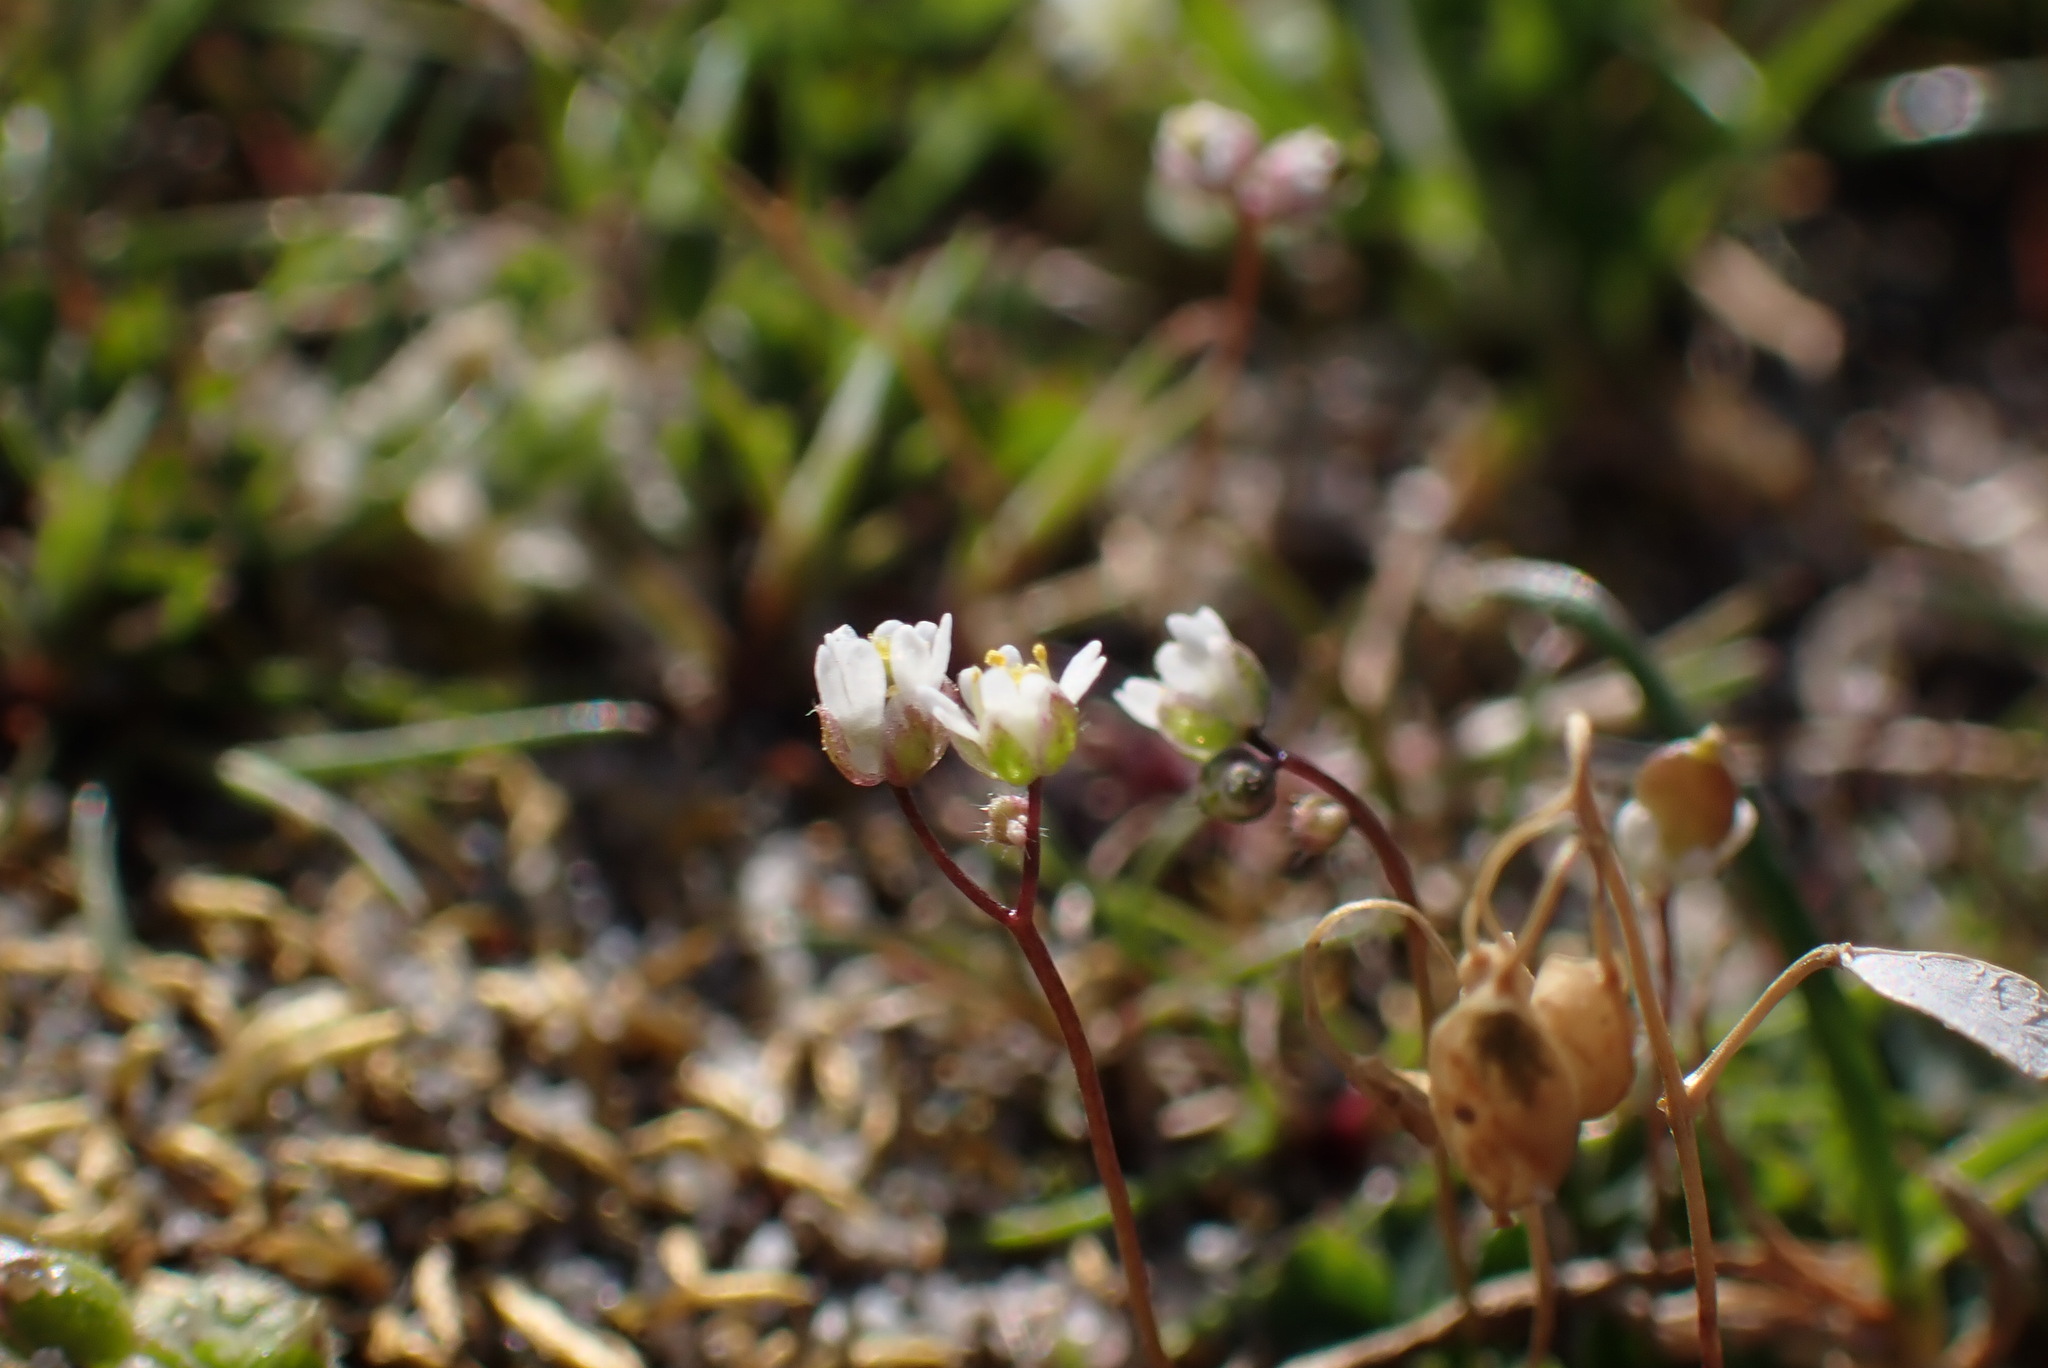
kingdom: Plantae
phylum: Tracheophyta
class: Magnoliopsida
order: Brassicales
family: Brassicaceae
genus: Draba
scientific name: Draba verna
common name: Spring draba
